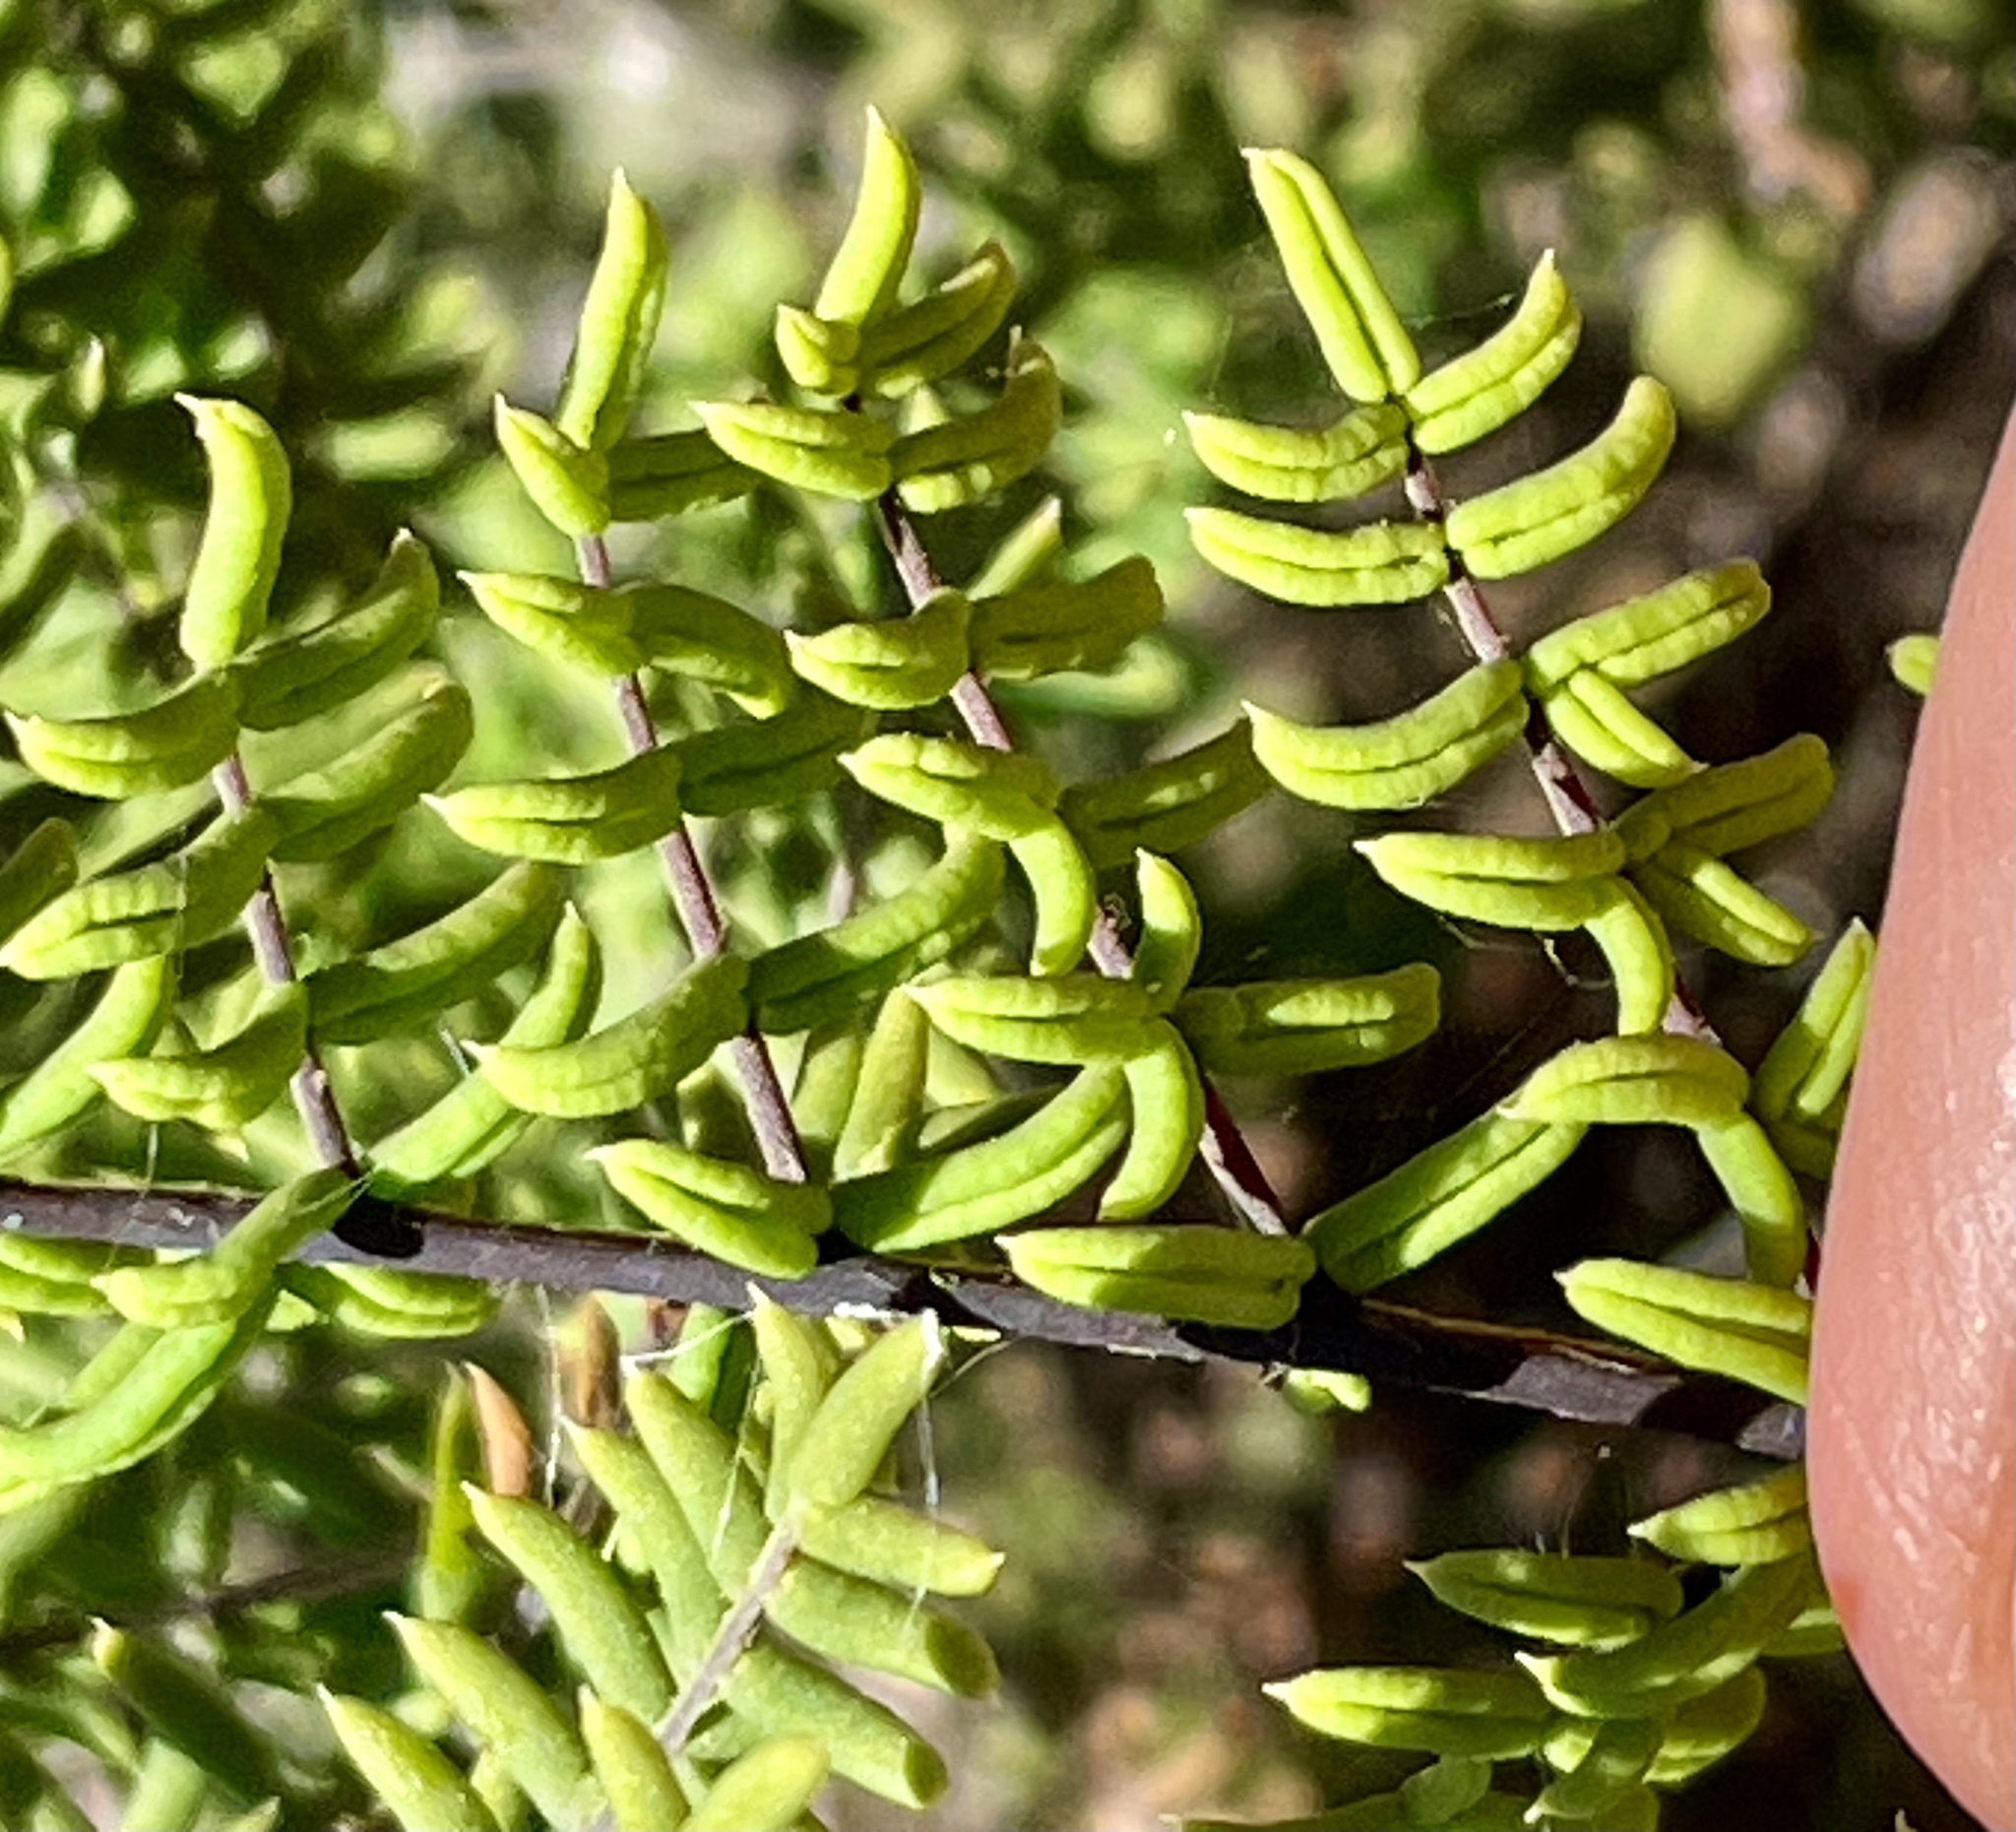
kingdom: Plantae
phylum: Tracheophyta
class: Polypodiopsida
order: Polypodiales
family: Pteridaceae
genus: Pellaea
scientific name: Pellaea mucronata
